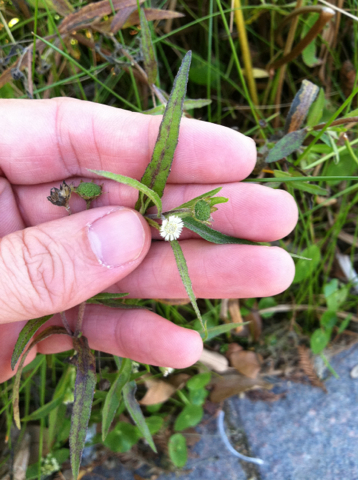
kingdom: Plantae
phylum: Tracheophyta
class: Magnoliopsida
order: Asterales
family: Asteraceae
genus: Eclipta
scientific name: Eclipta prostrata
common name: False daisy
